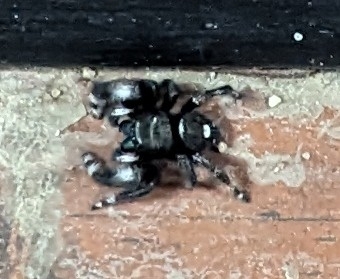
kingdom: Animalia
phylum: Arthropoda
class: Arachnida
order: Araneae
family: Salticidae
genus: Phidippus
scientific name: Phidippus audax
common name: Bold jumper
